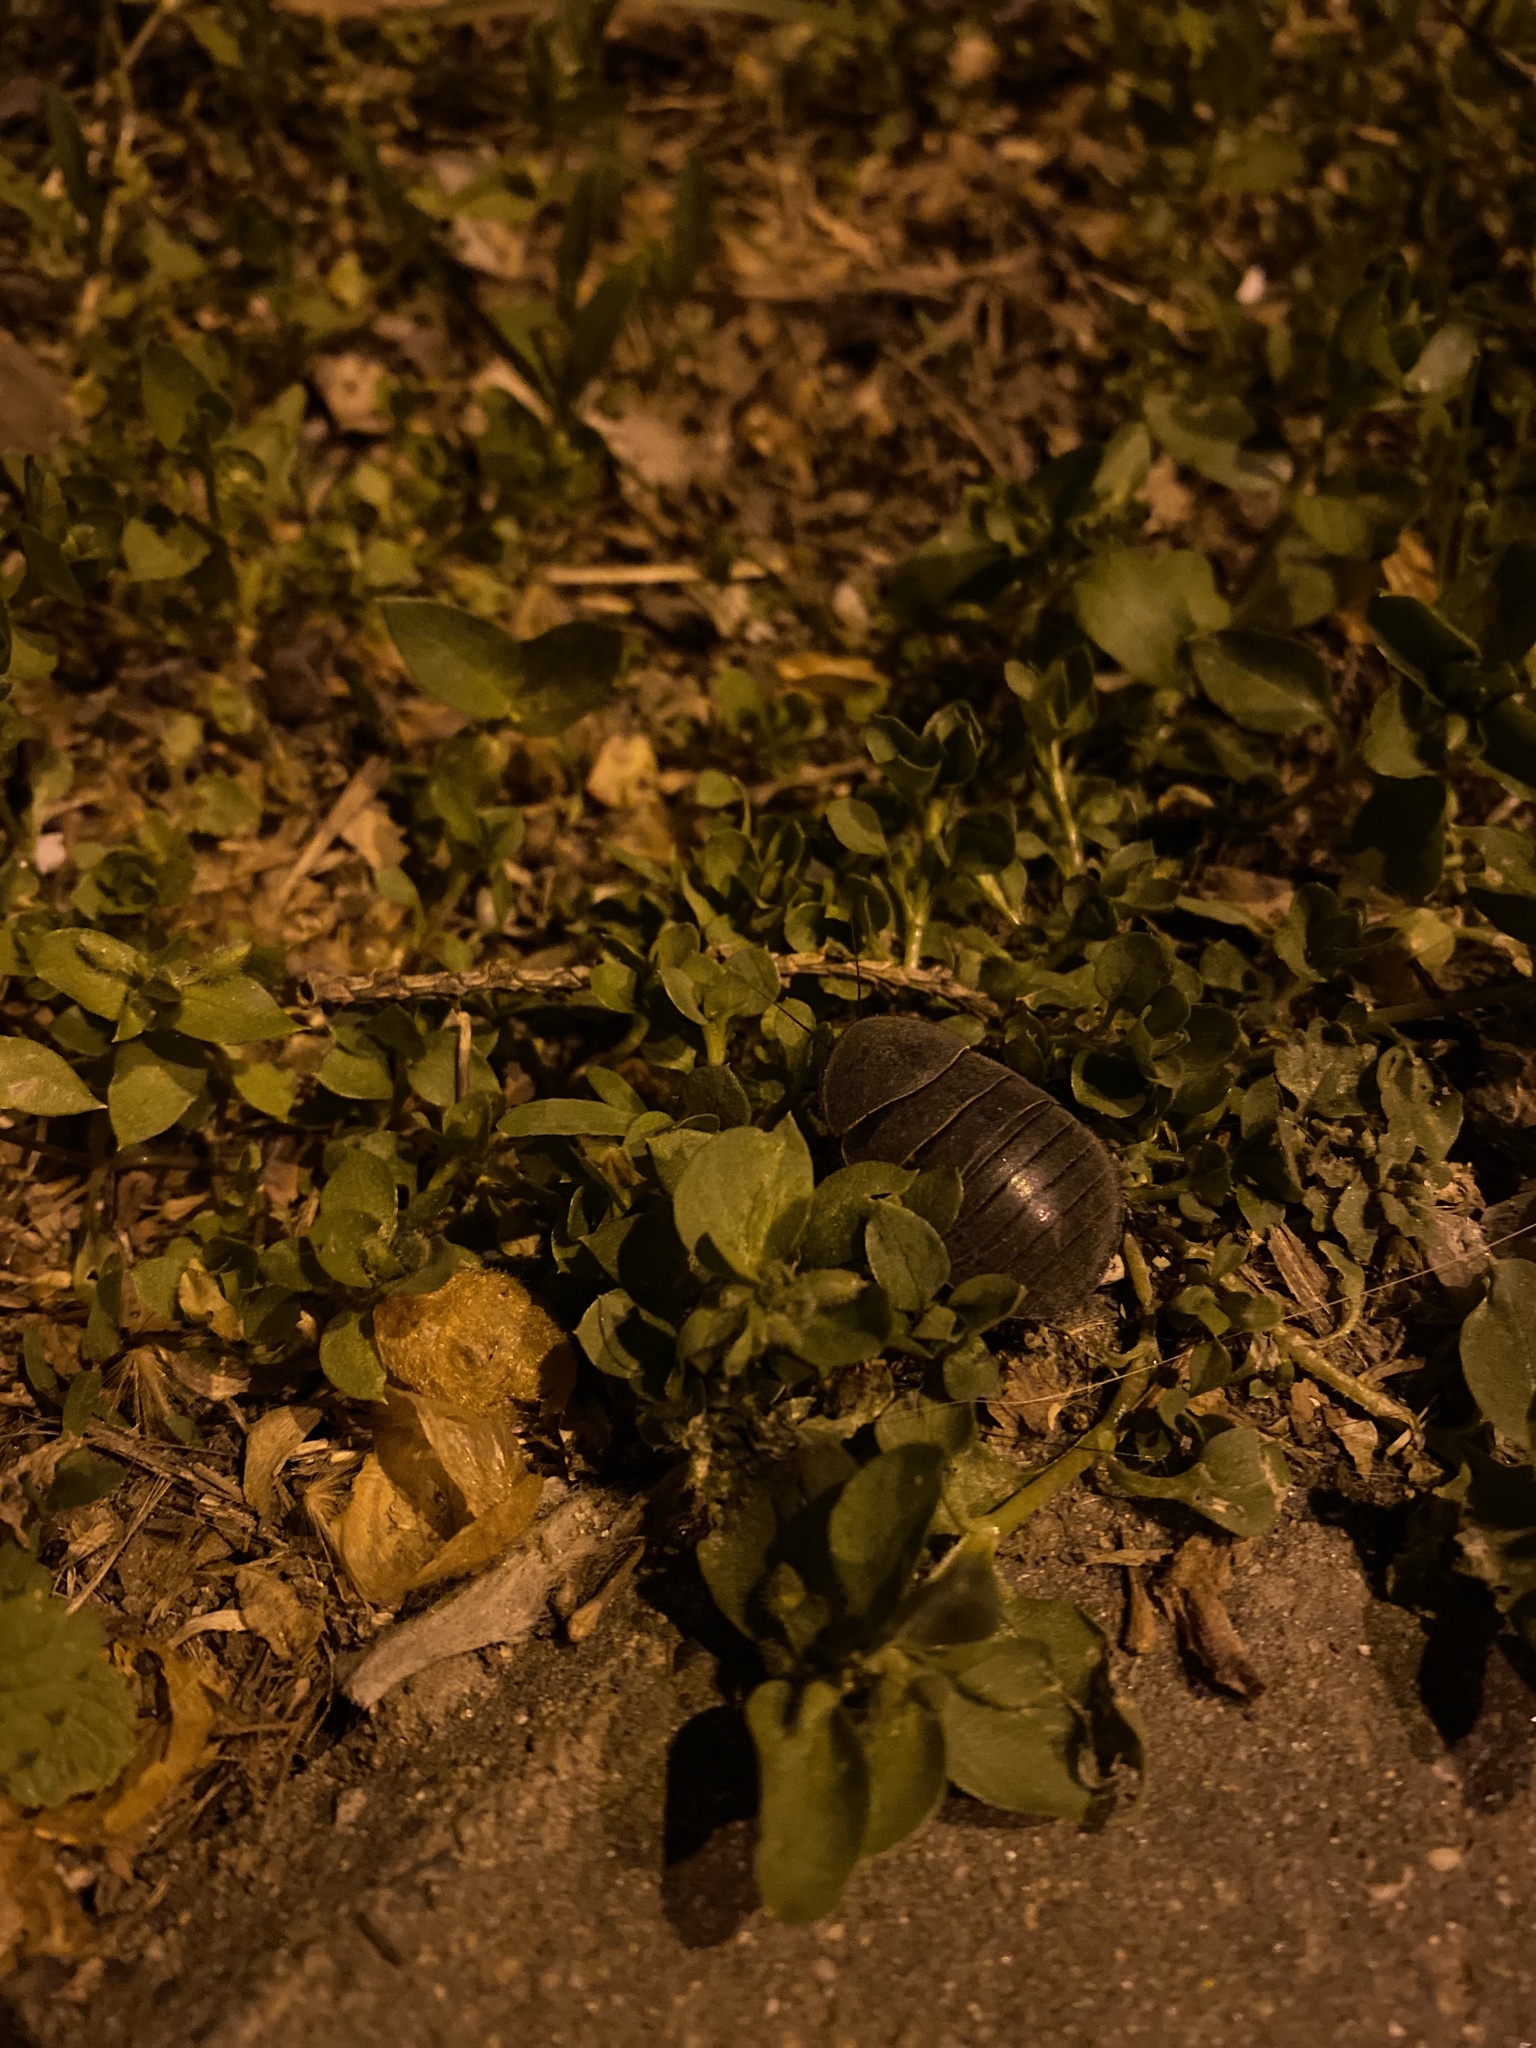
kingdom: Animalia
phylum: Arthropoda
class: Insecta
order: Blattodea
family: Corydiidae
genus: Polyphaga
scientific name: Polyphaga aegyptiaca
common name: Egyptian cockroach
